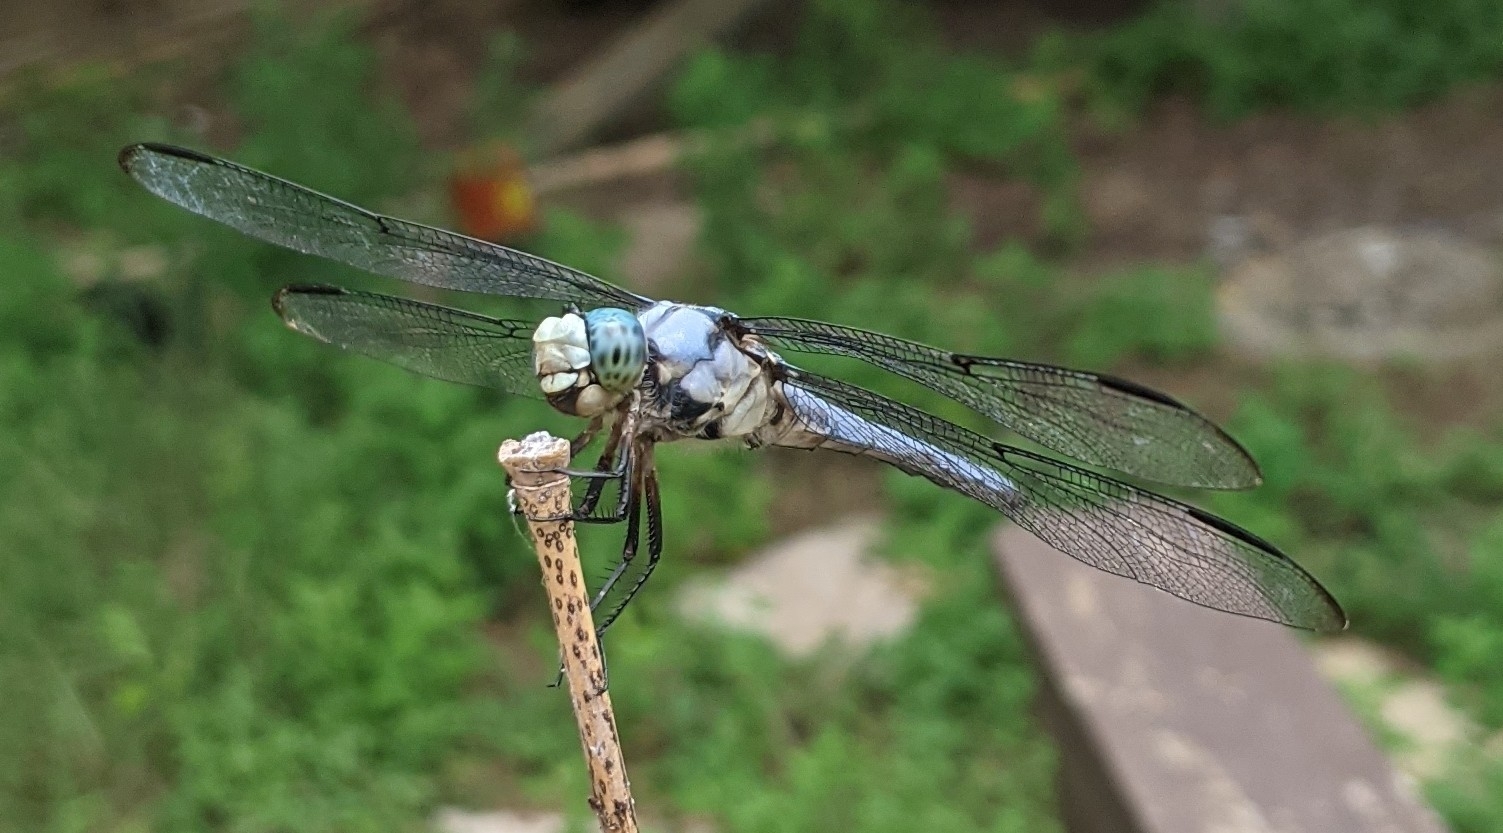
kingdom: Animalia
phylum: Arthropoda
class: Insecta
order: Odonata
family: Libellulidae
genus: Libellula
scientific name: Libellula vibrans
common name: Great blue skimmer
